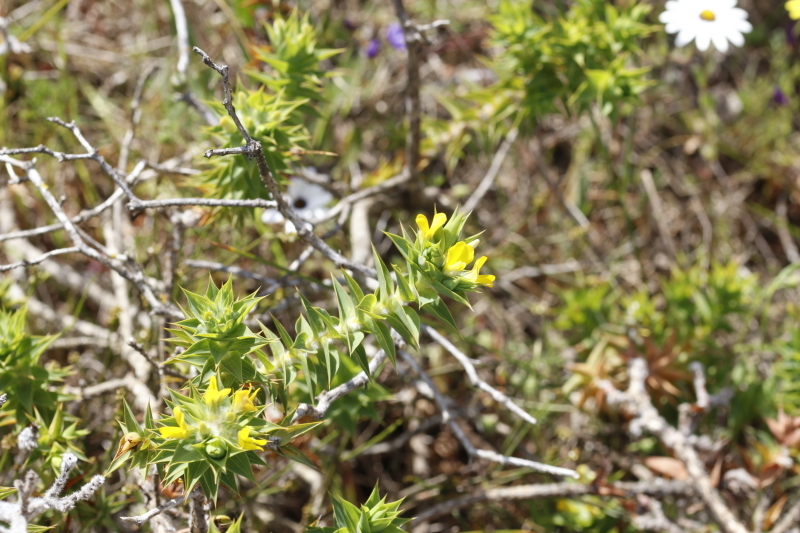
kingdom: Plantae
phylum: Tracheophyta
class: Magnoliopsida
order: Fabales
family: Fabaceae
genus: Aspalathus
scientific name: Aspalathus cordata
